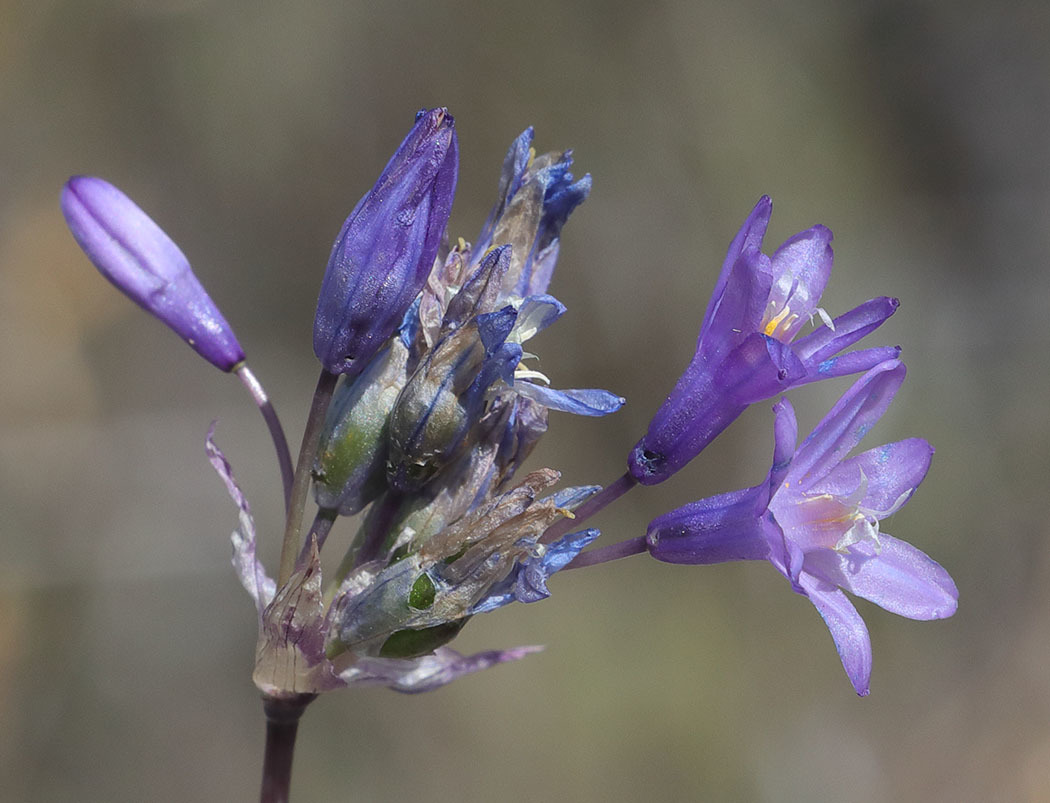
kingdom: Plantae
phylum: Tracheophyta
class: Liliopsida
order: Asparagales
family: Asparagaceae
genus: Dipterostemon
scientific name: Dipterostemon capitatus
